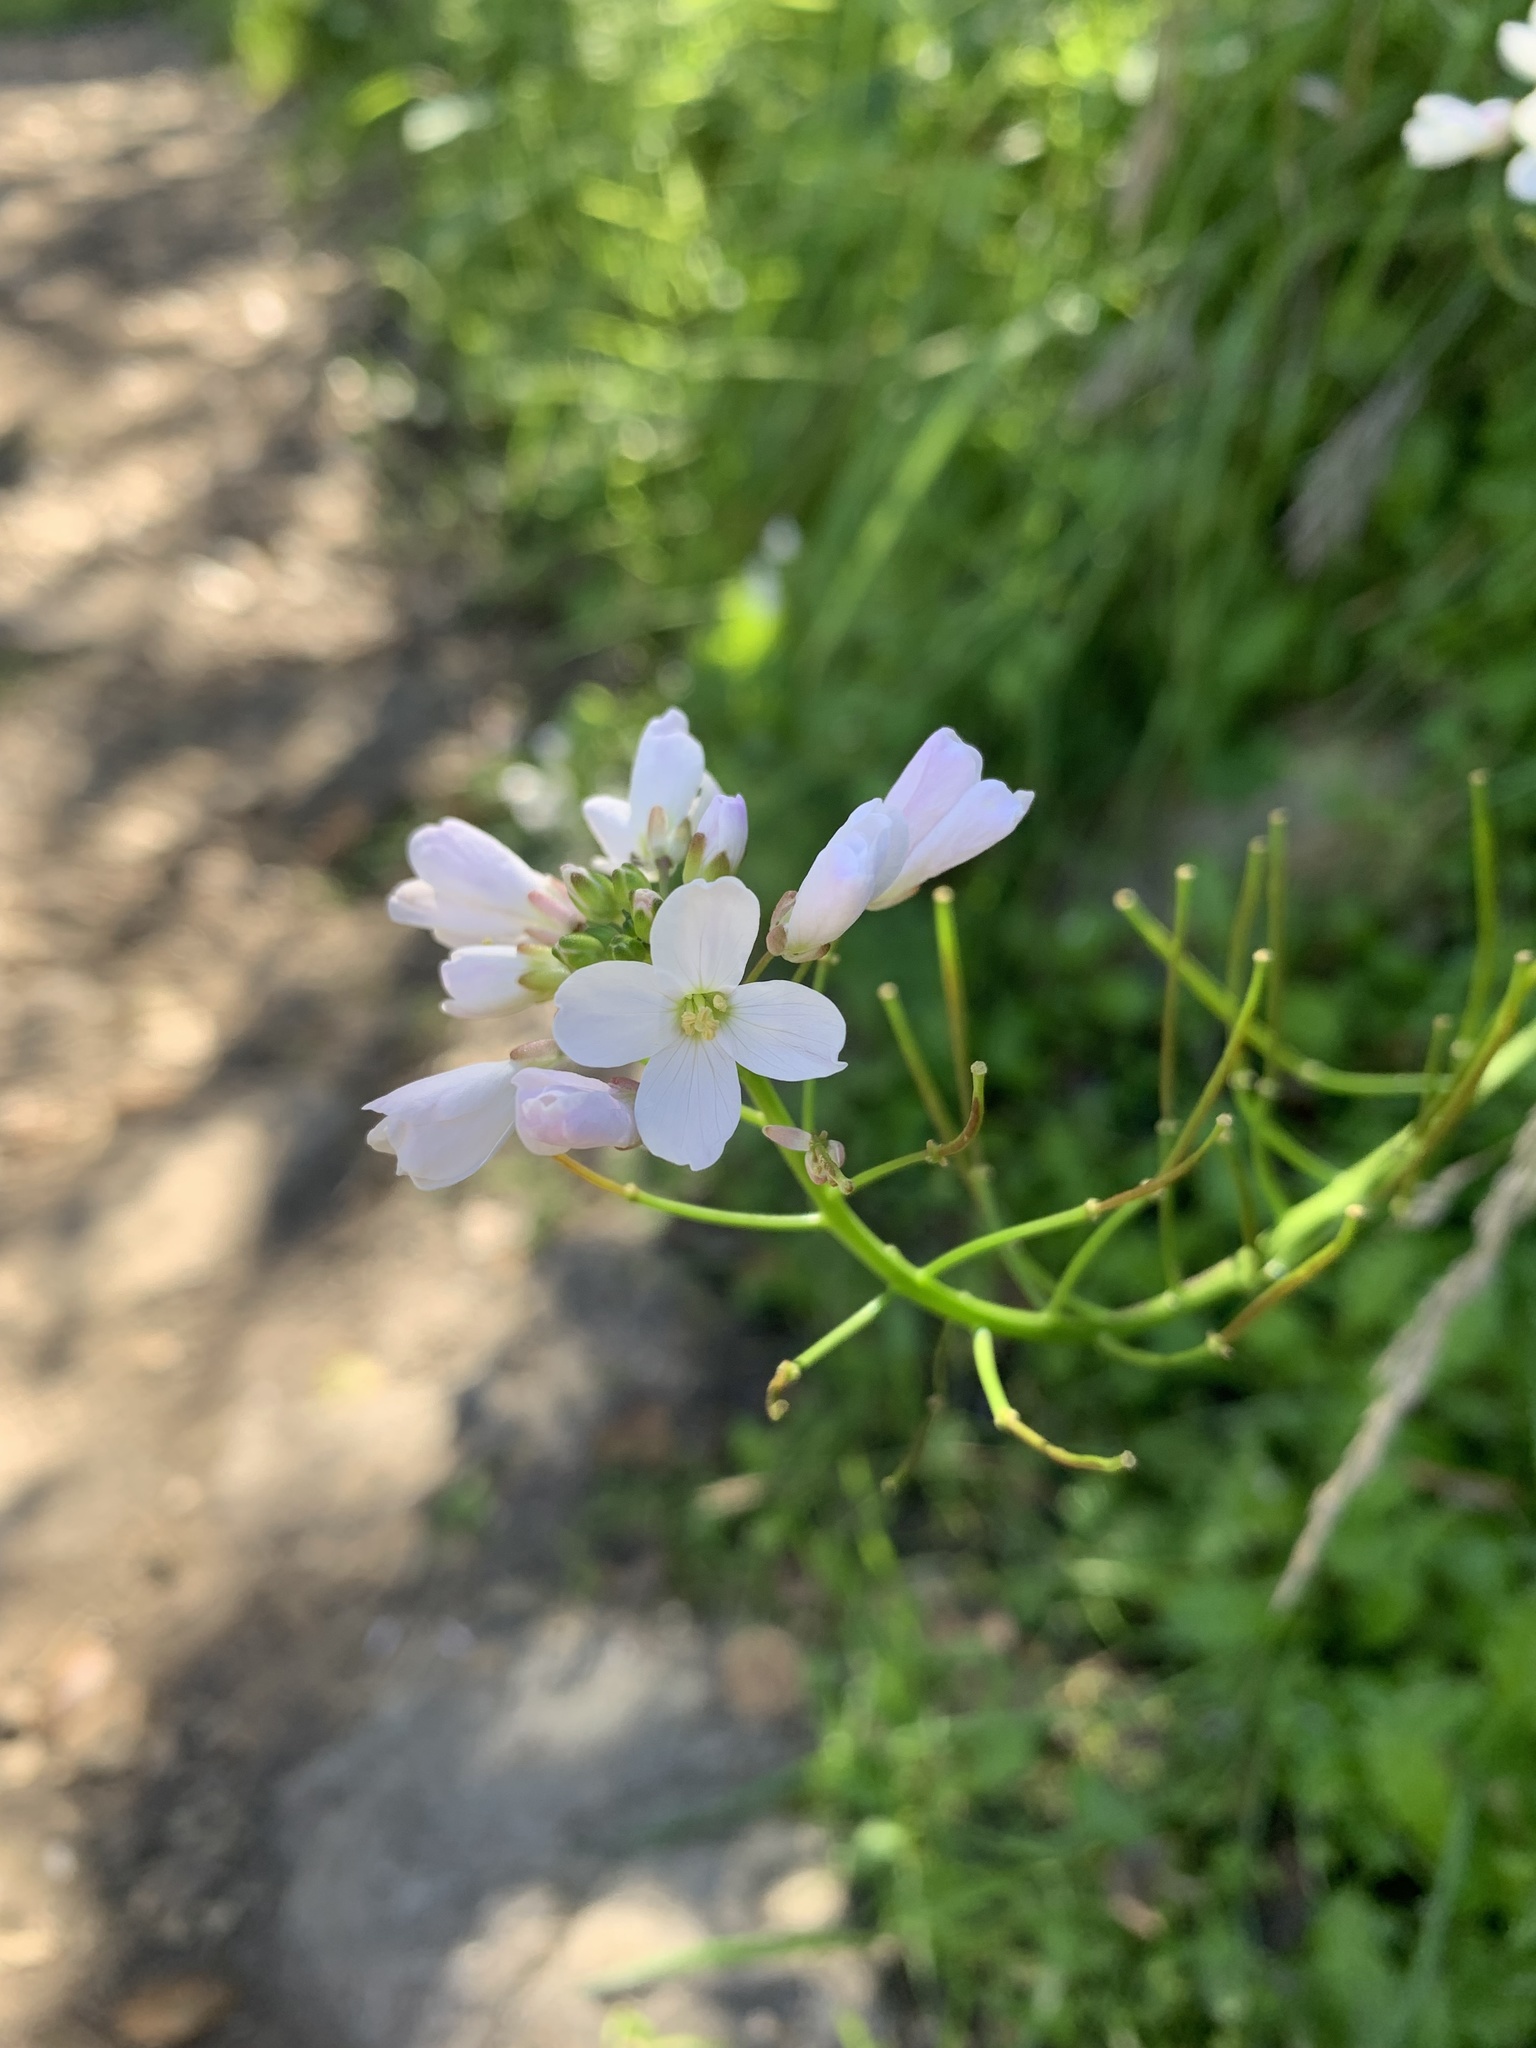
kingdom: Plantae
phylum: Tracheophyta
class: Magnoliopsida
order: Brassicales
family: Brassicaceae
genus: Cardamine
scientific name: Cardamine californica
